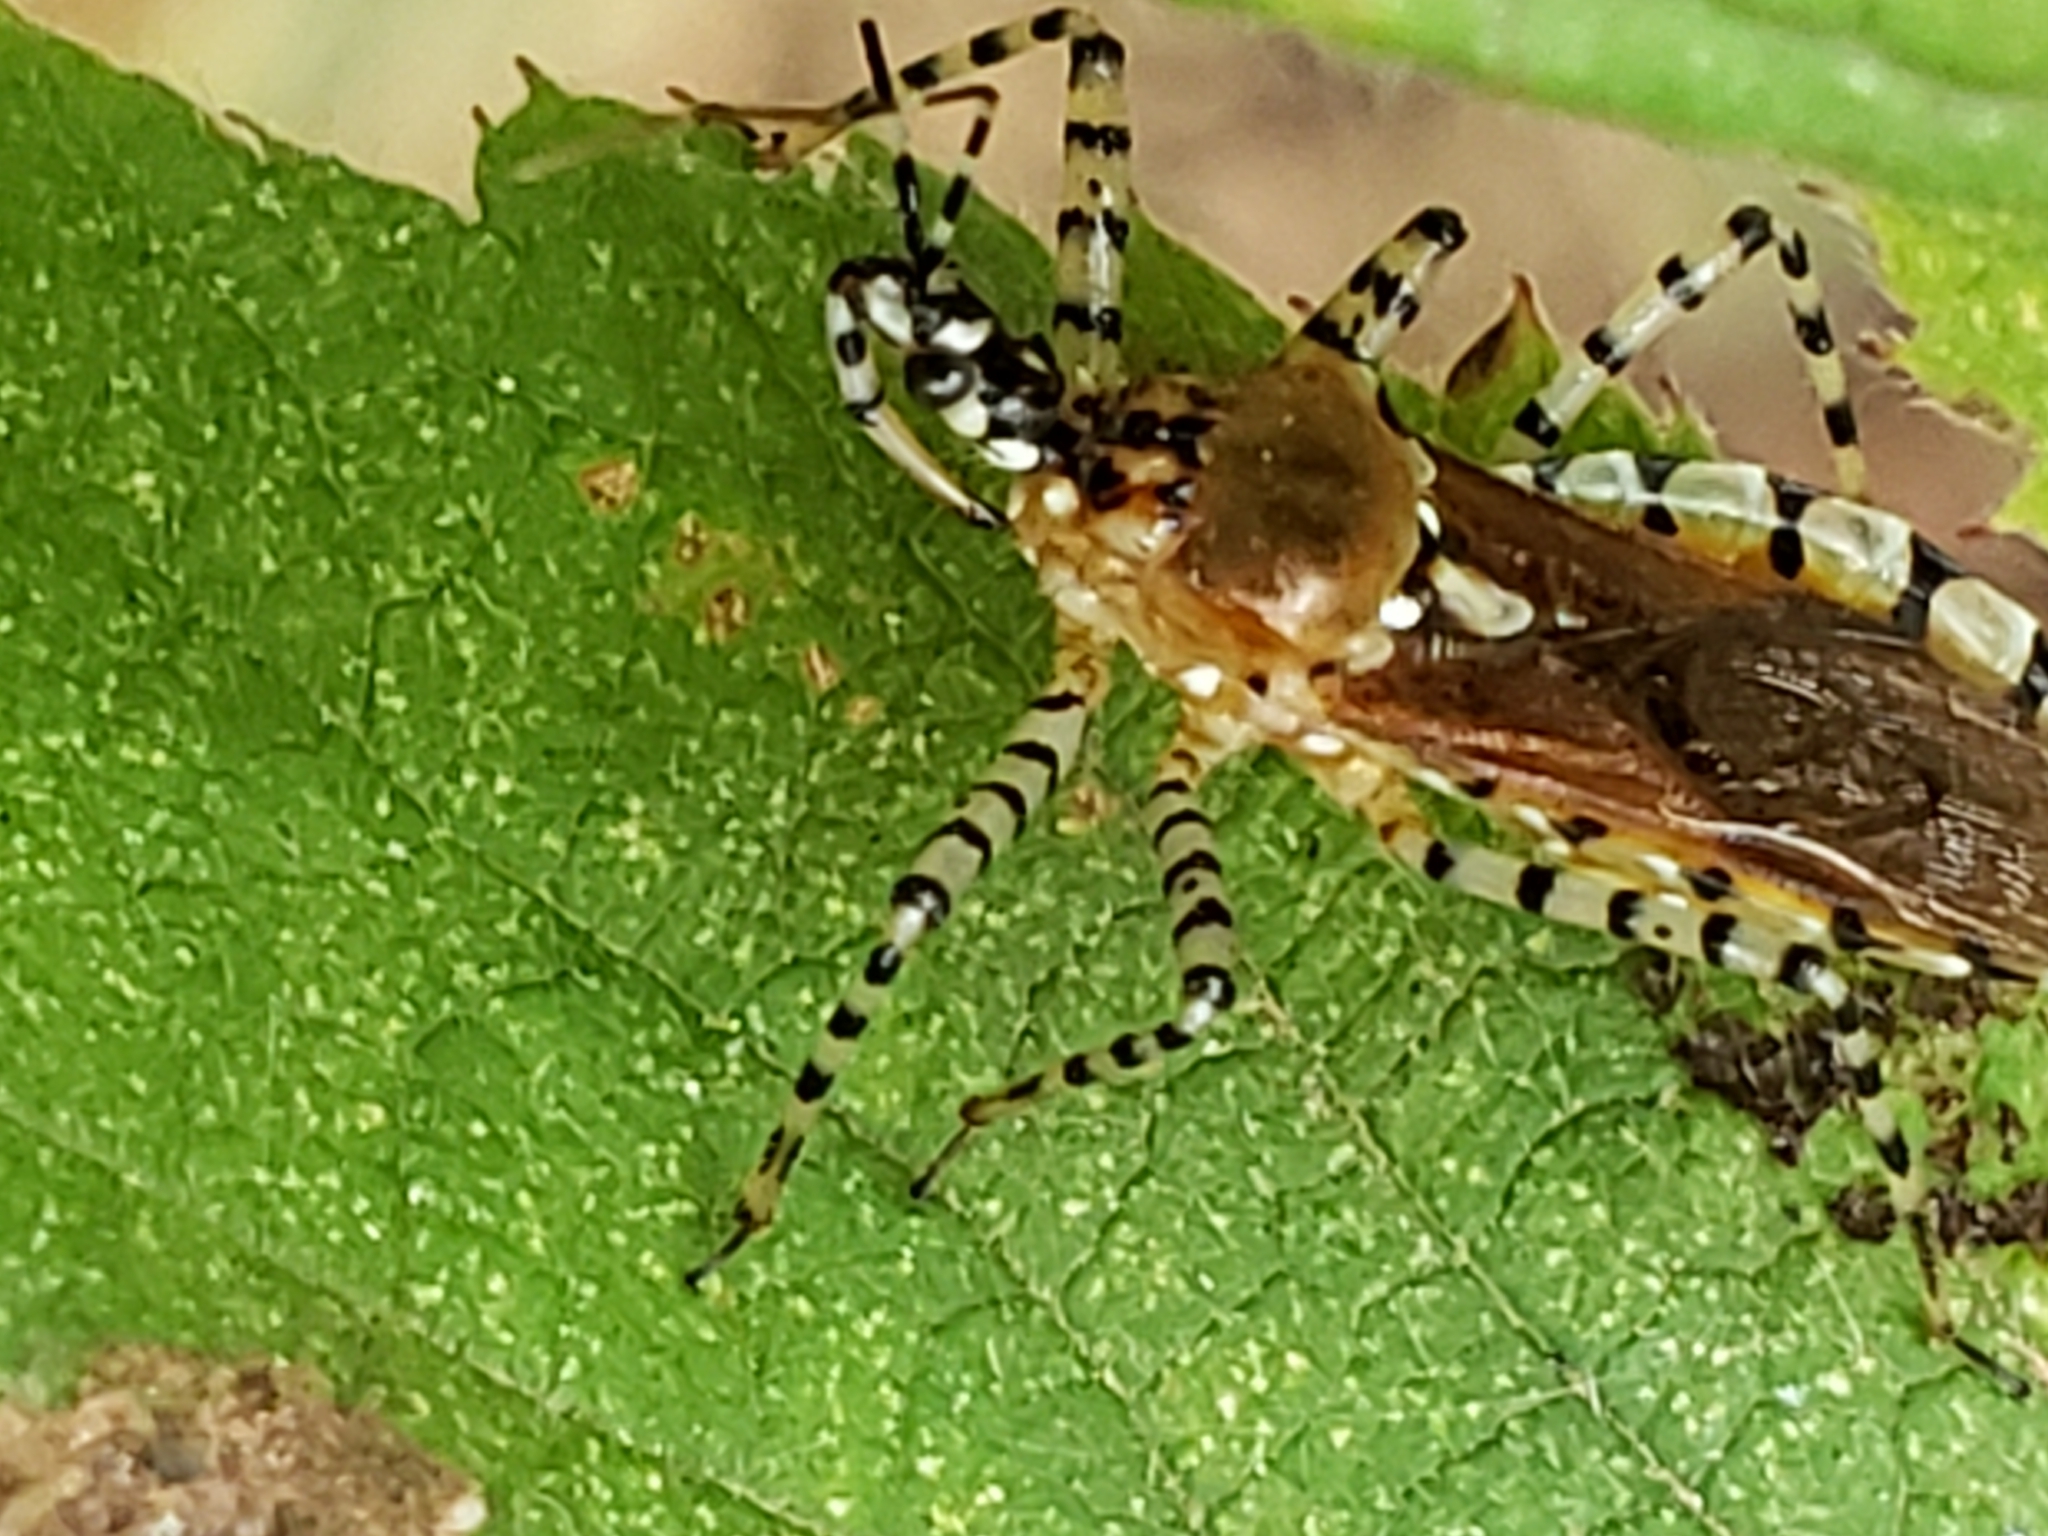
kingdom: Animalia
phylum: Arthropoda
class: Insecta
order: Hemiptera
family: Reduviidae
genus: Pselliopus
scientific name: Pselliopus cinctus
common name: Ringed assassin bug
